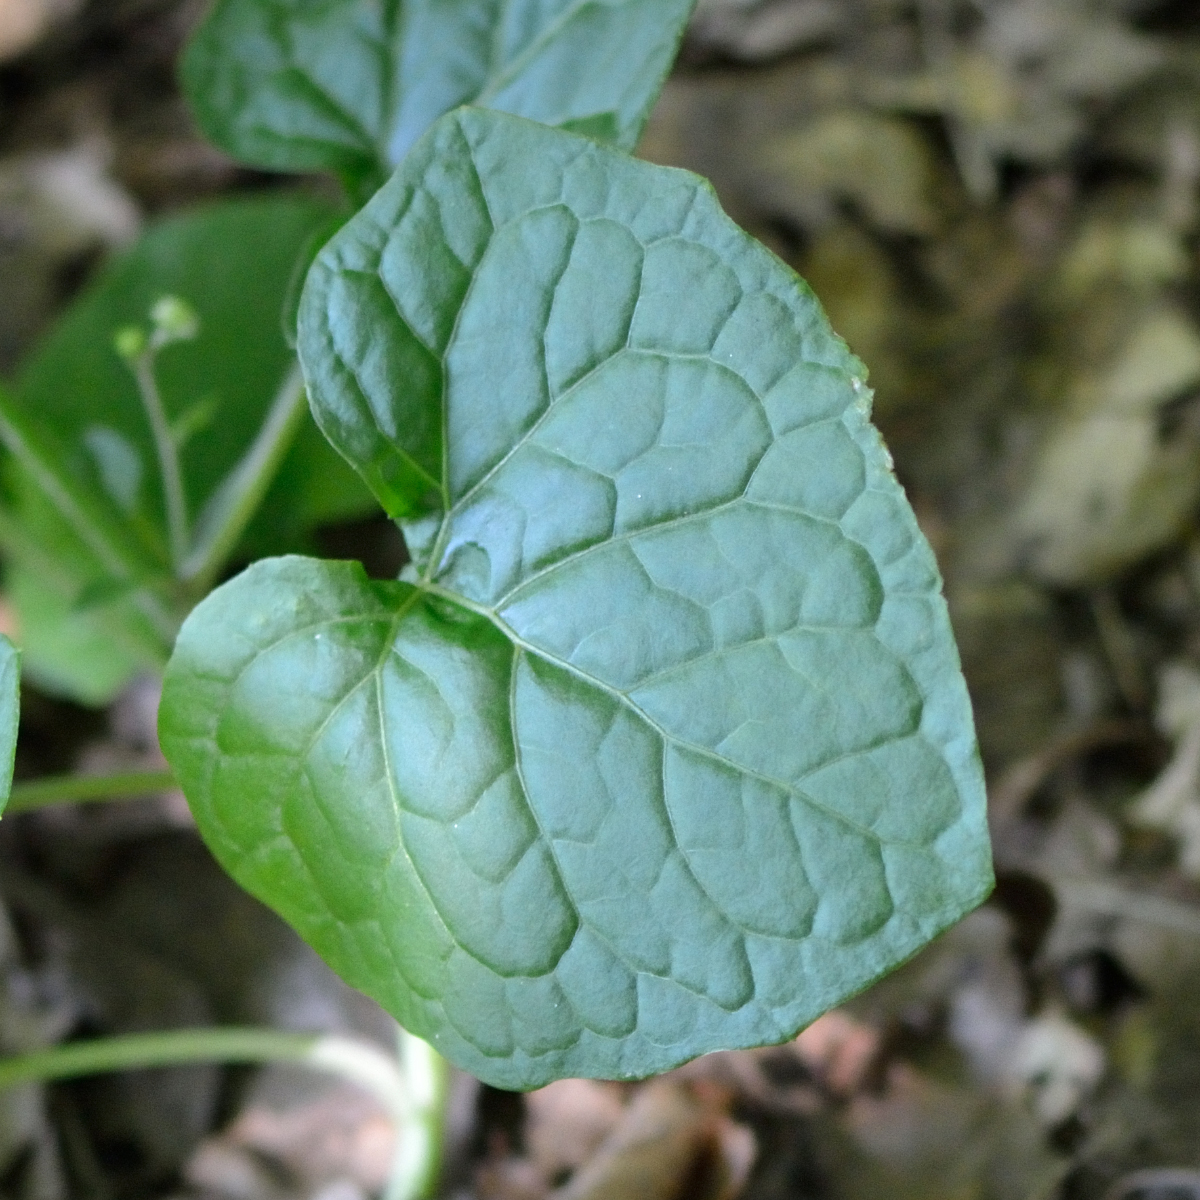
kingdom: Plantae
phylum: Tracheophyta
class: Magnoliopsida
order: Asterales
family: Asteraceae
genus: Adenocaulon
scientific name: Adenocaulon himalaicum
